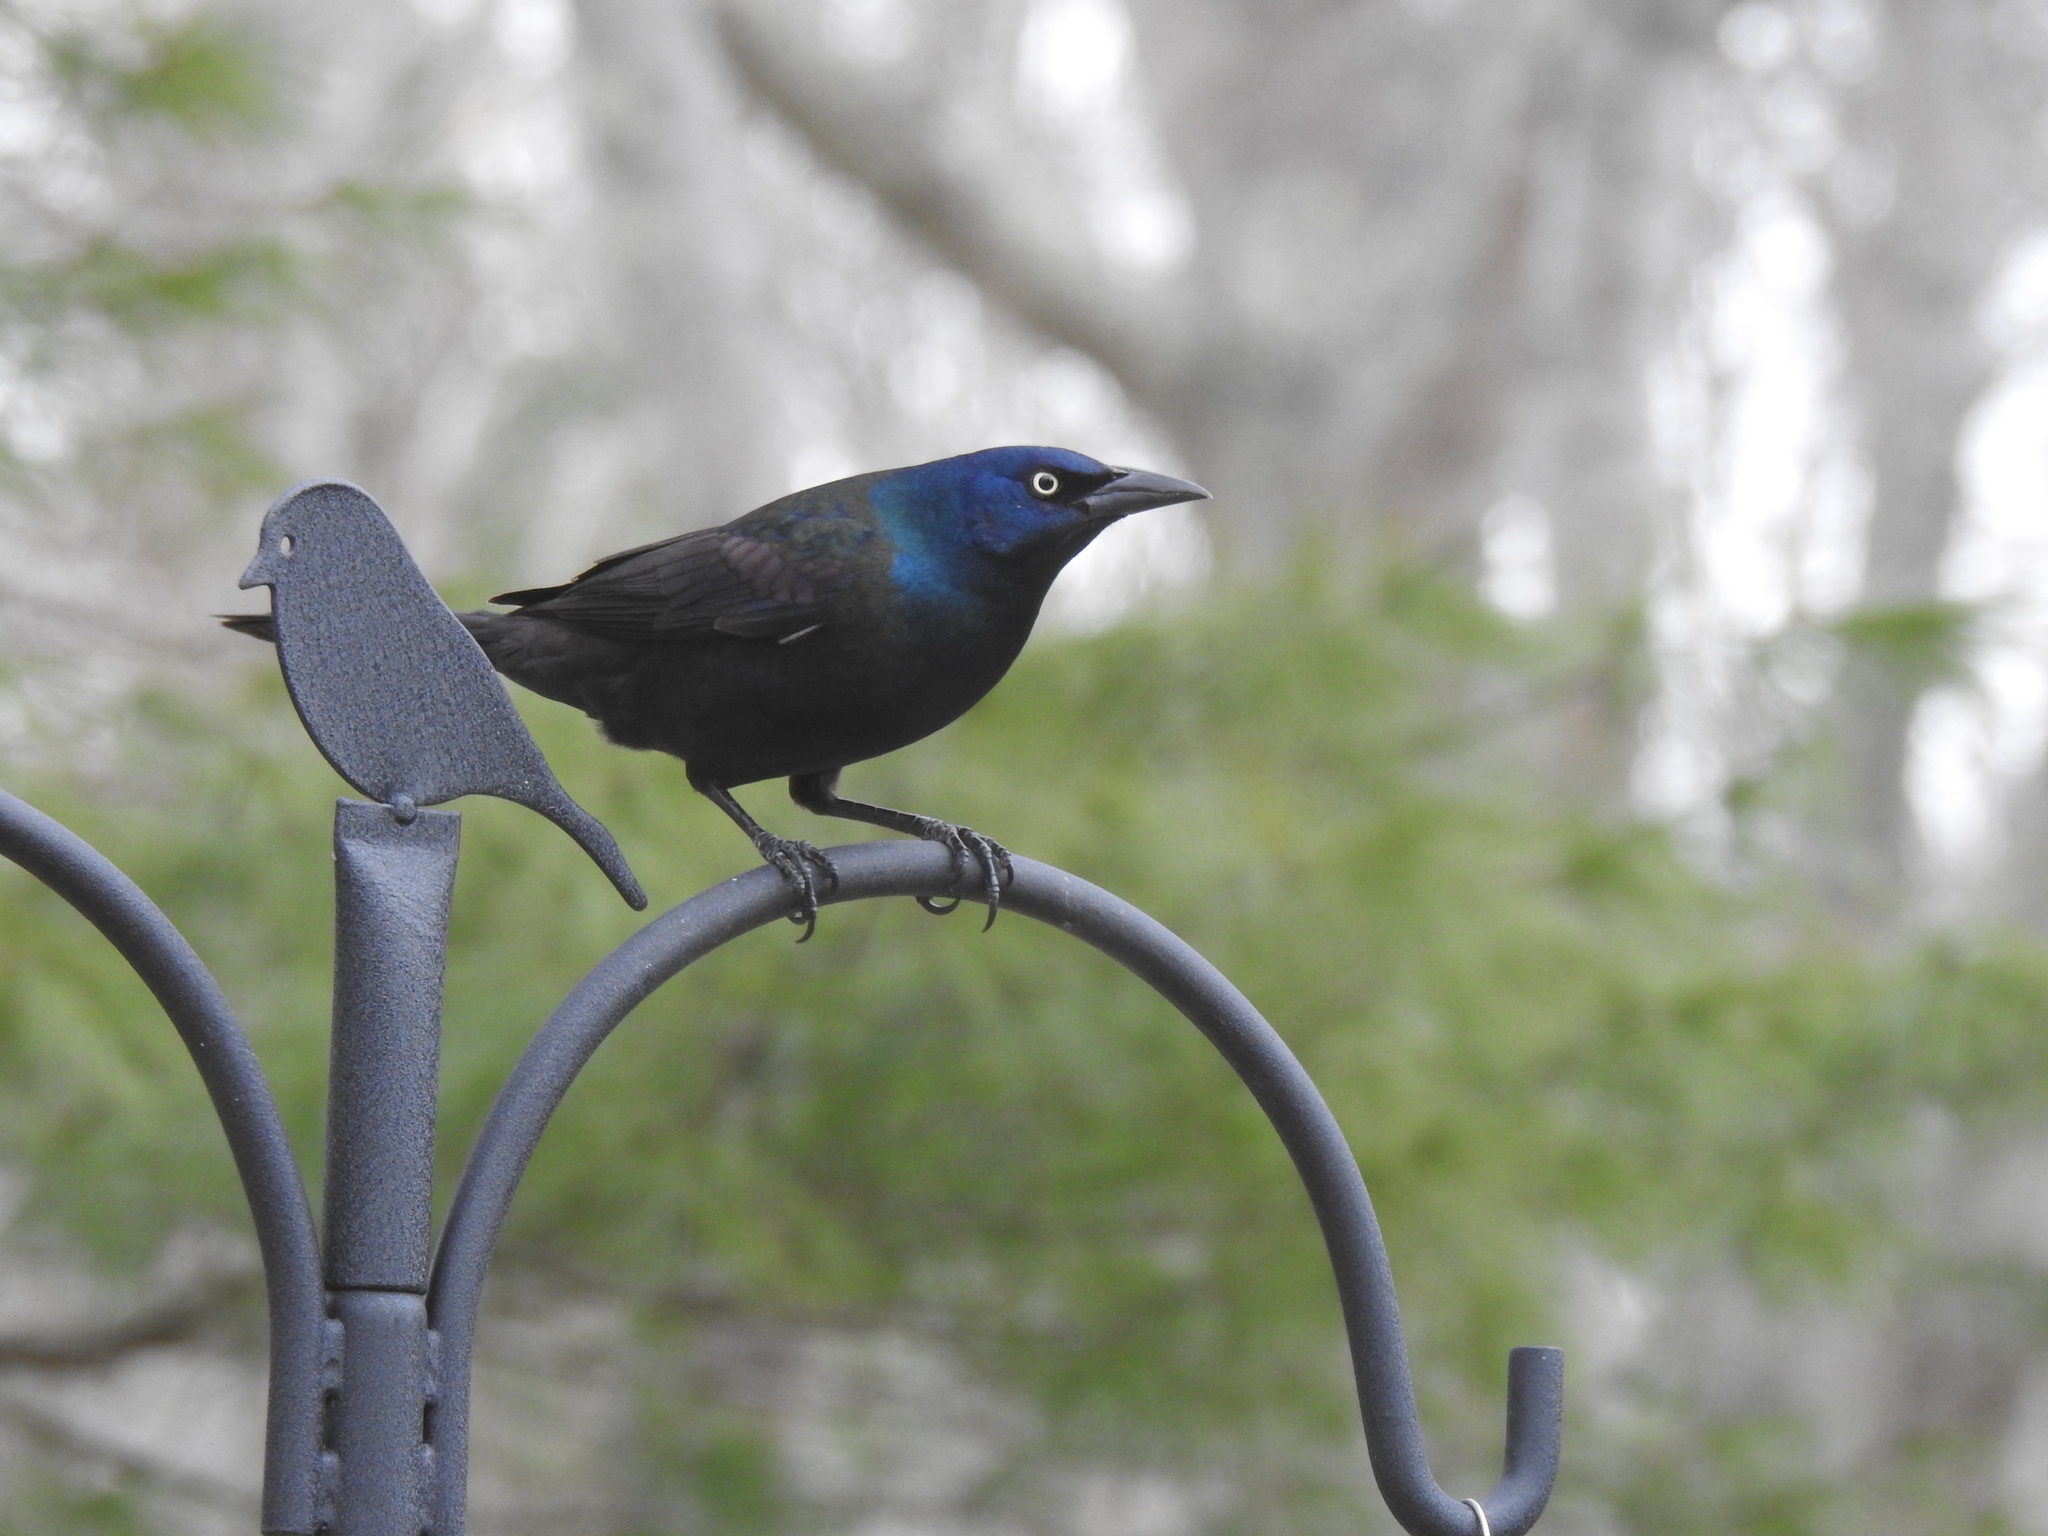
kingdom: Animalia
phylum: Chordata
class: Aves
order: Passeriformes
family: Icteridae
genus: Quiscalus
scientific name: Quiscalus quiscula
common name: Common grackle
